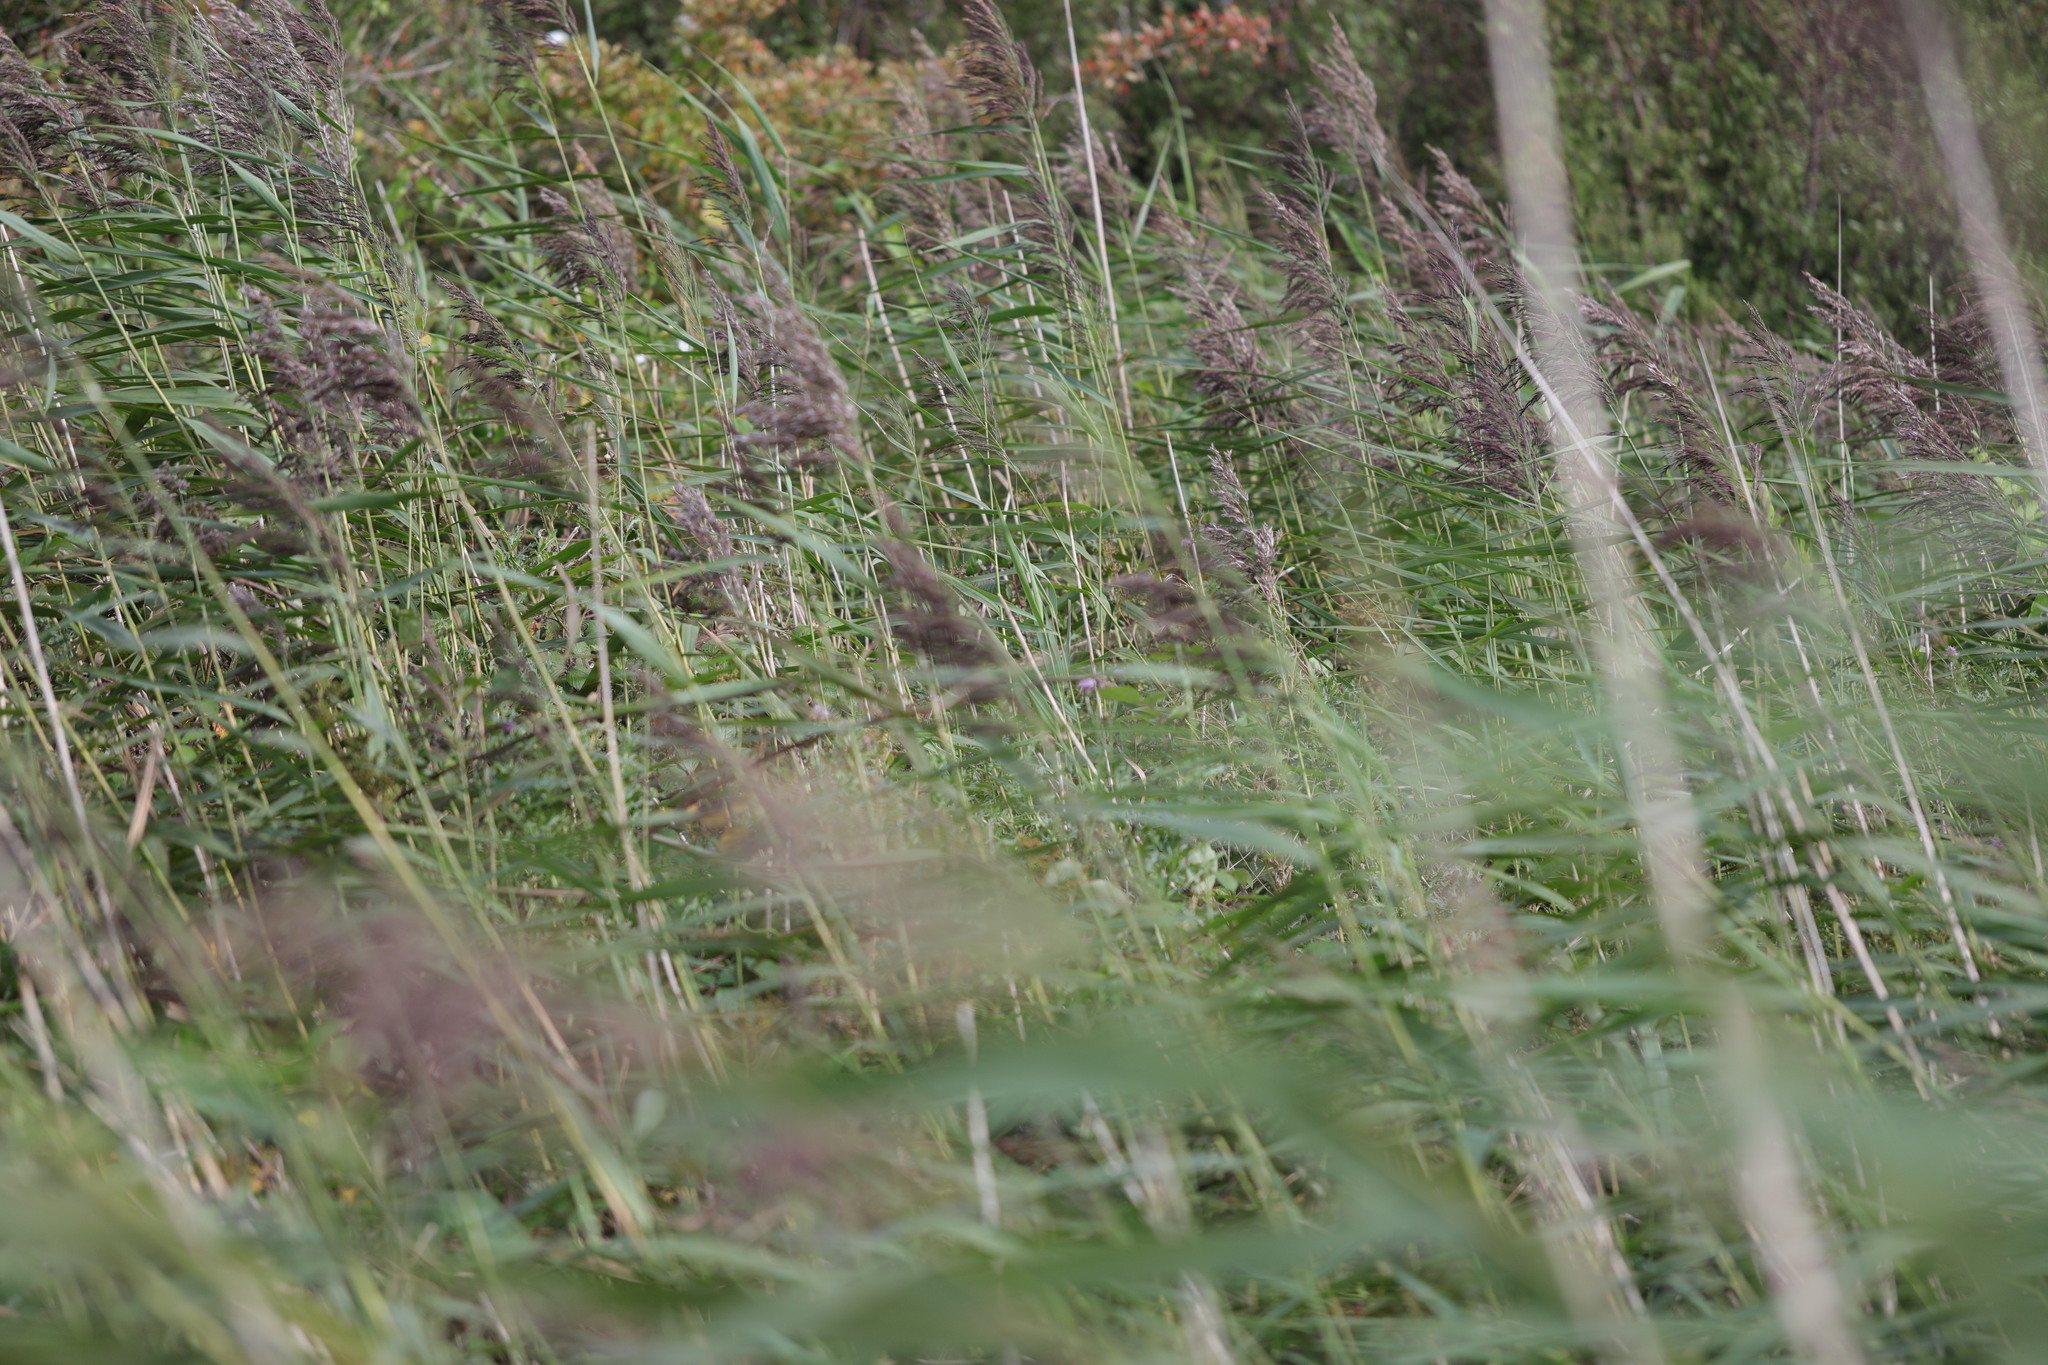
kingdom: Plantae
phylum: Tracheophyta
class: Liliopsida
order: Poales
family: Poaceae
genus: Phragmites
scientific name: Phragmites australis
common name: Common reed
